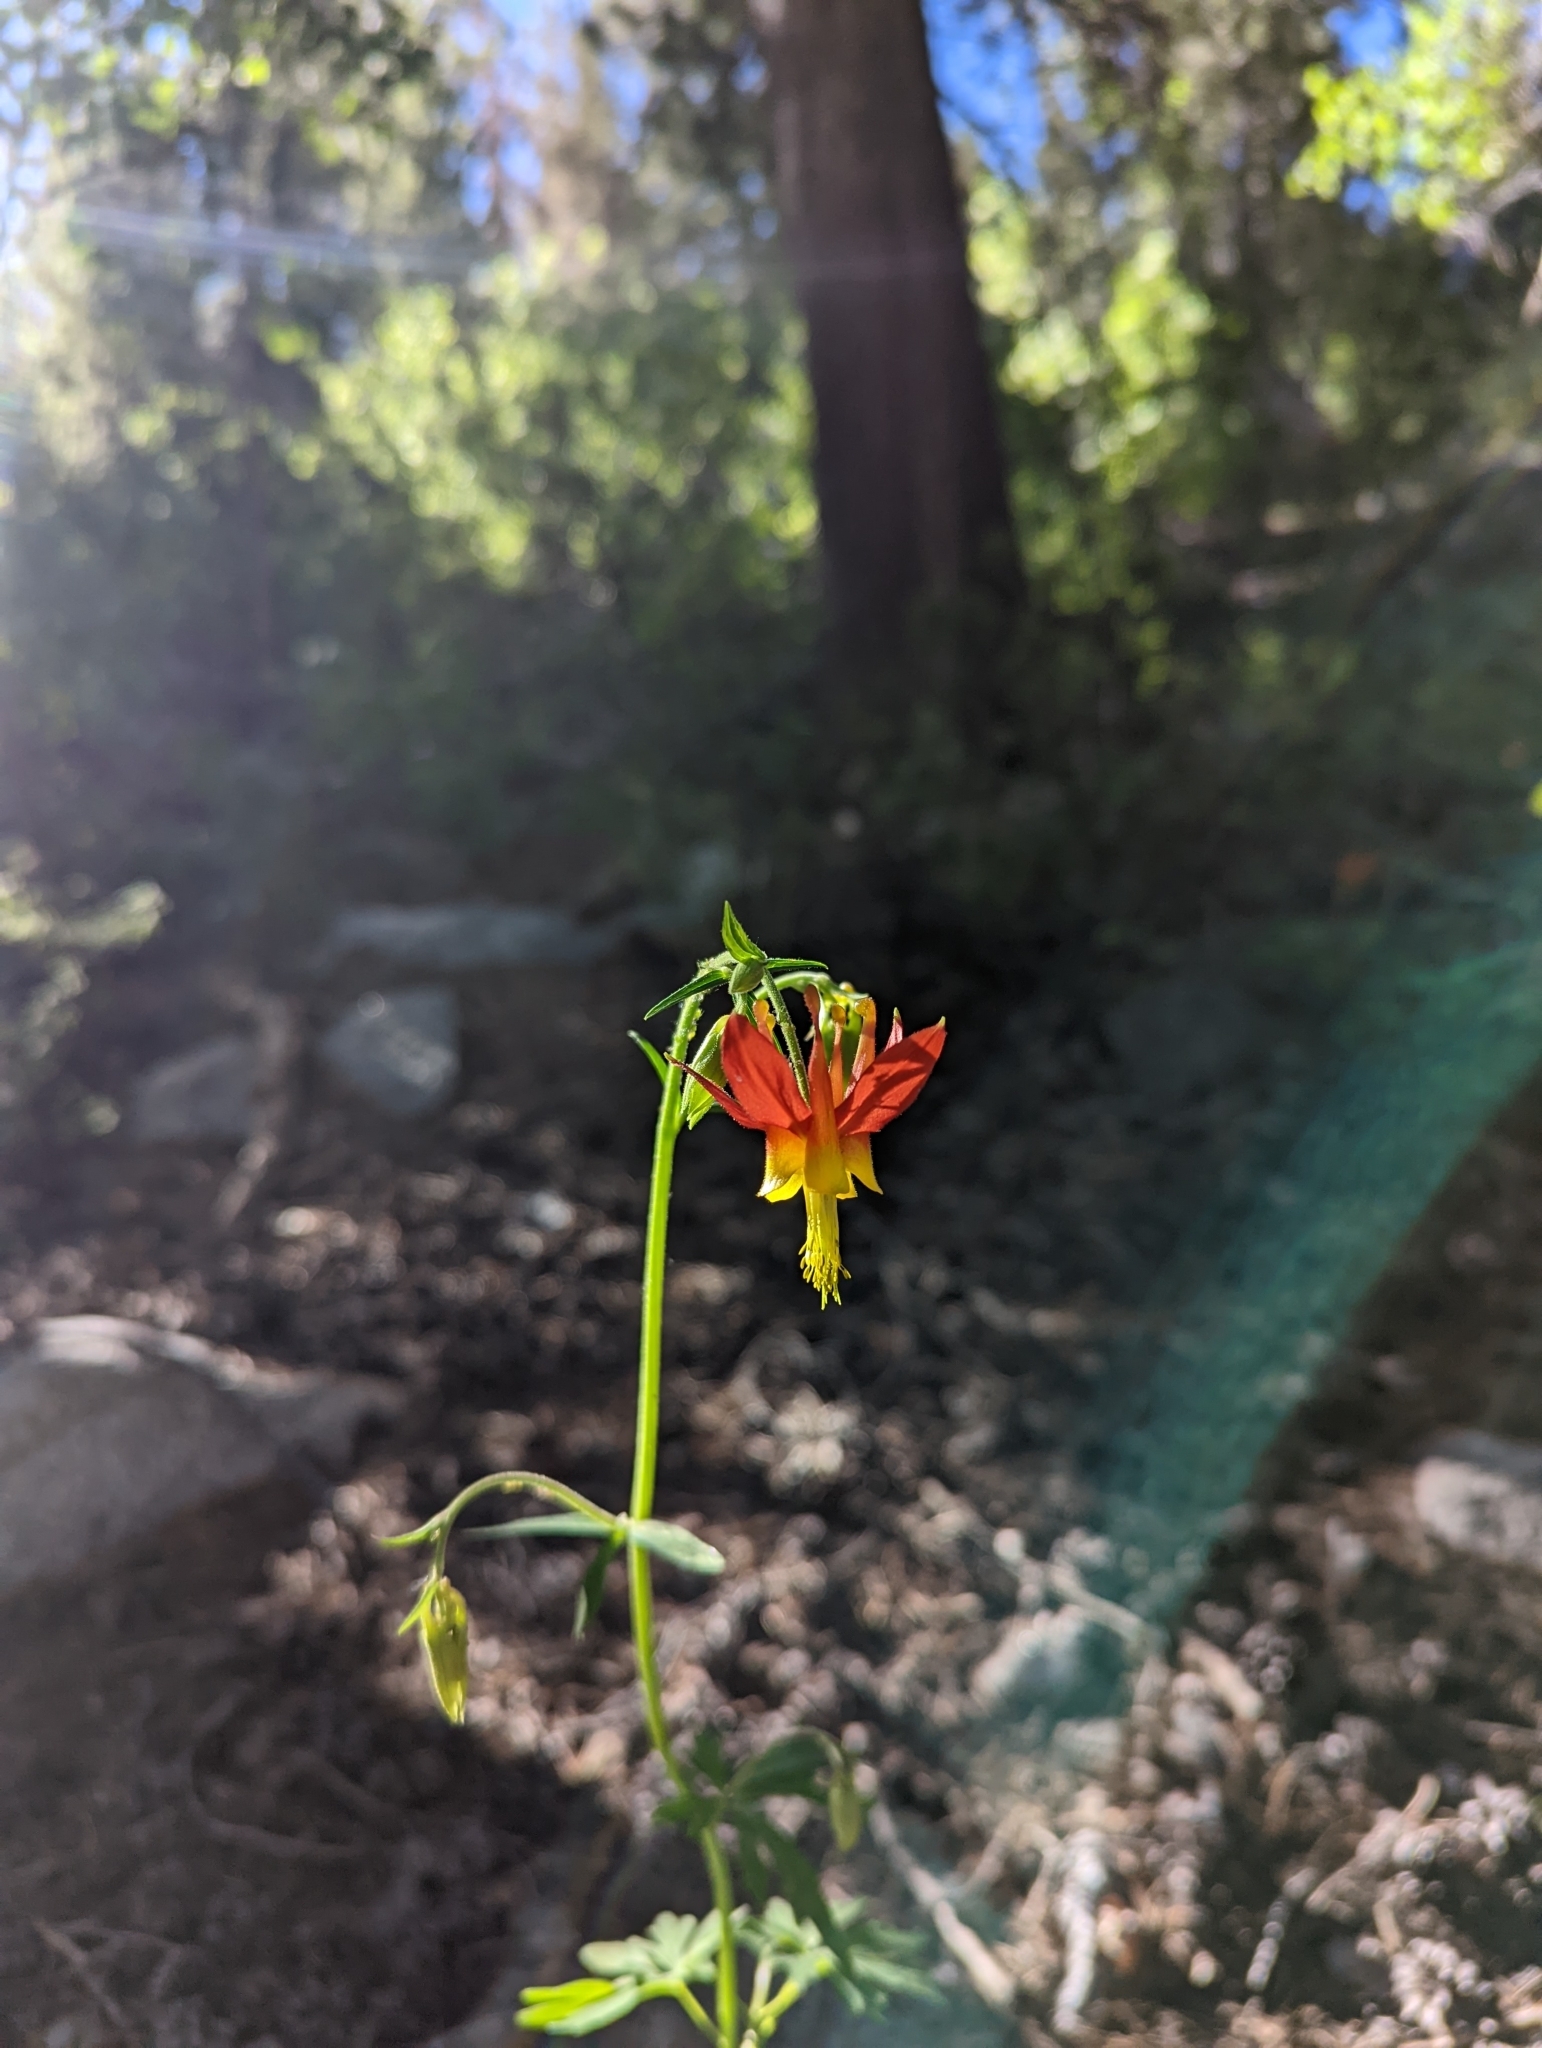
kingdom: Plantae
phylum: Tracheophyta
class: Magnoliopsida
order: Ranunculales
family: Ranunculaceae
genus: Aquilegia
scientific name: Aquilegia formosa
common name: Sitka columbine
